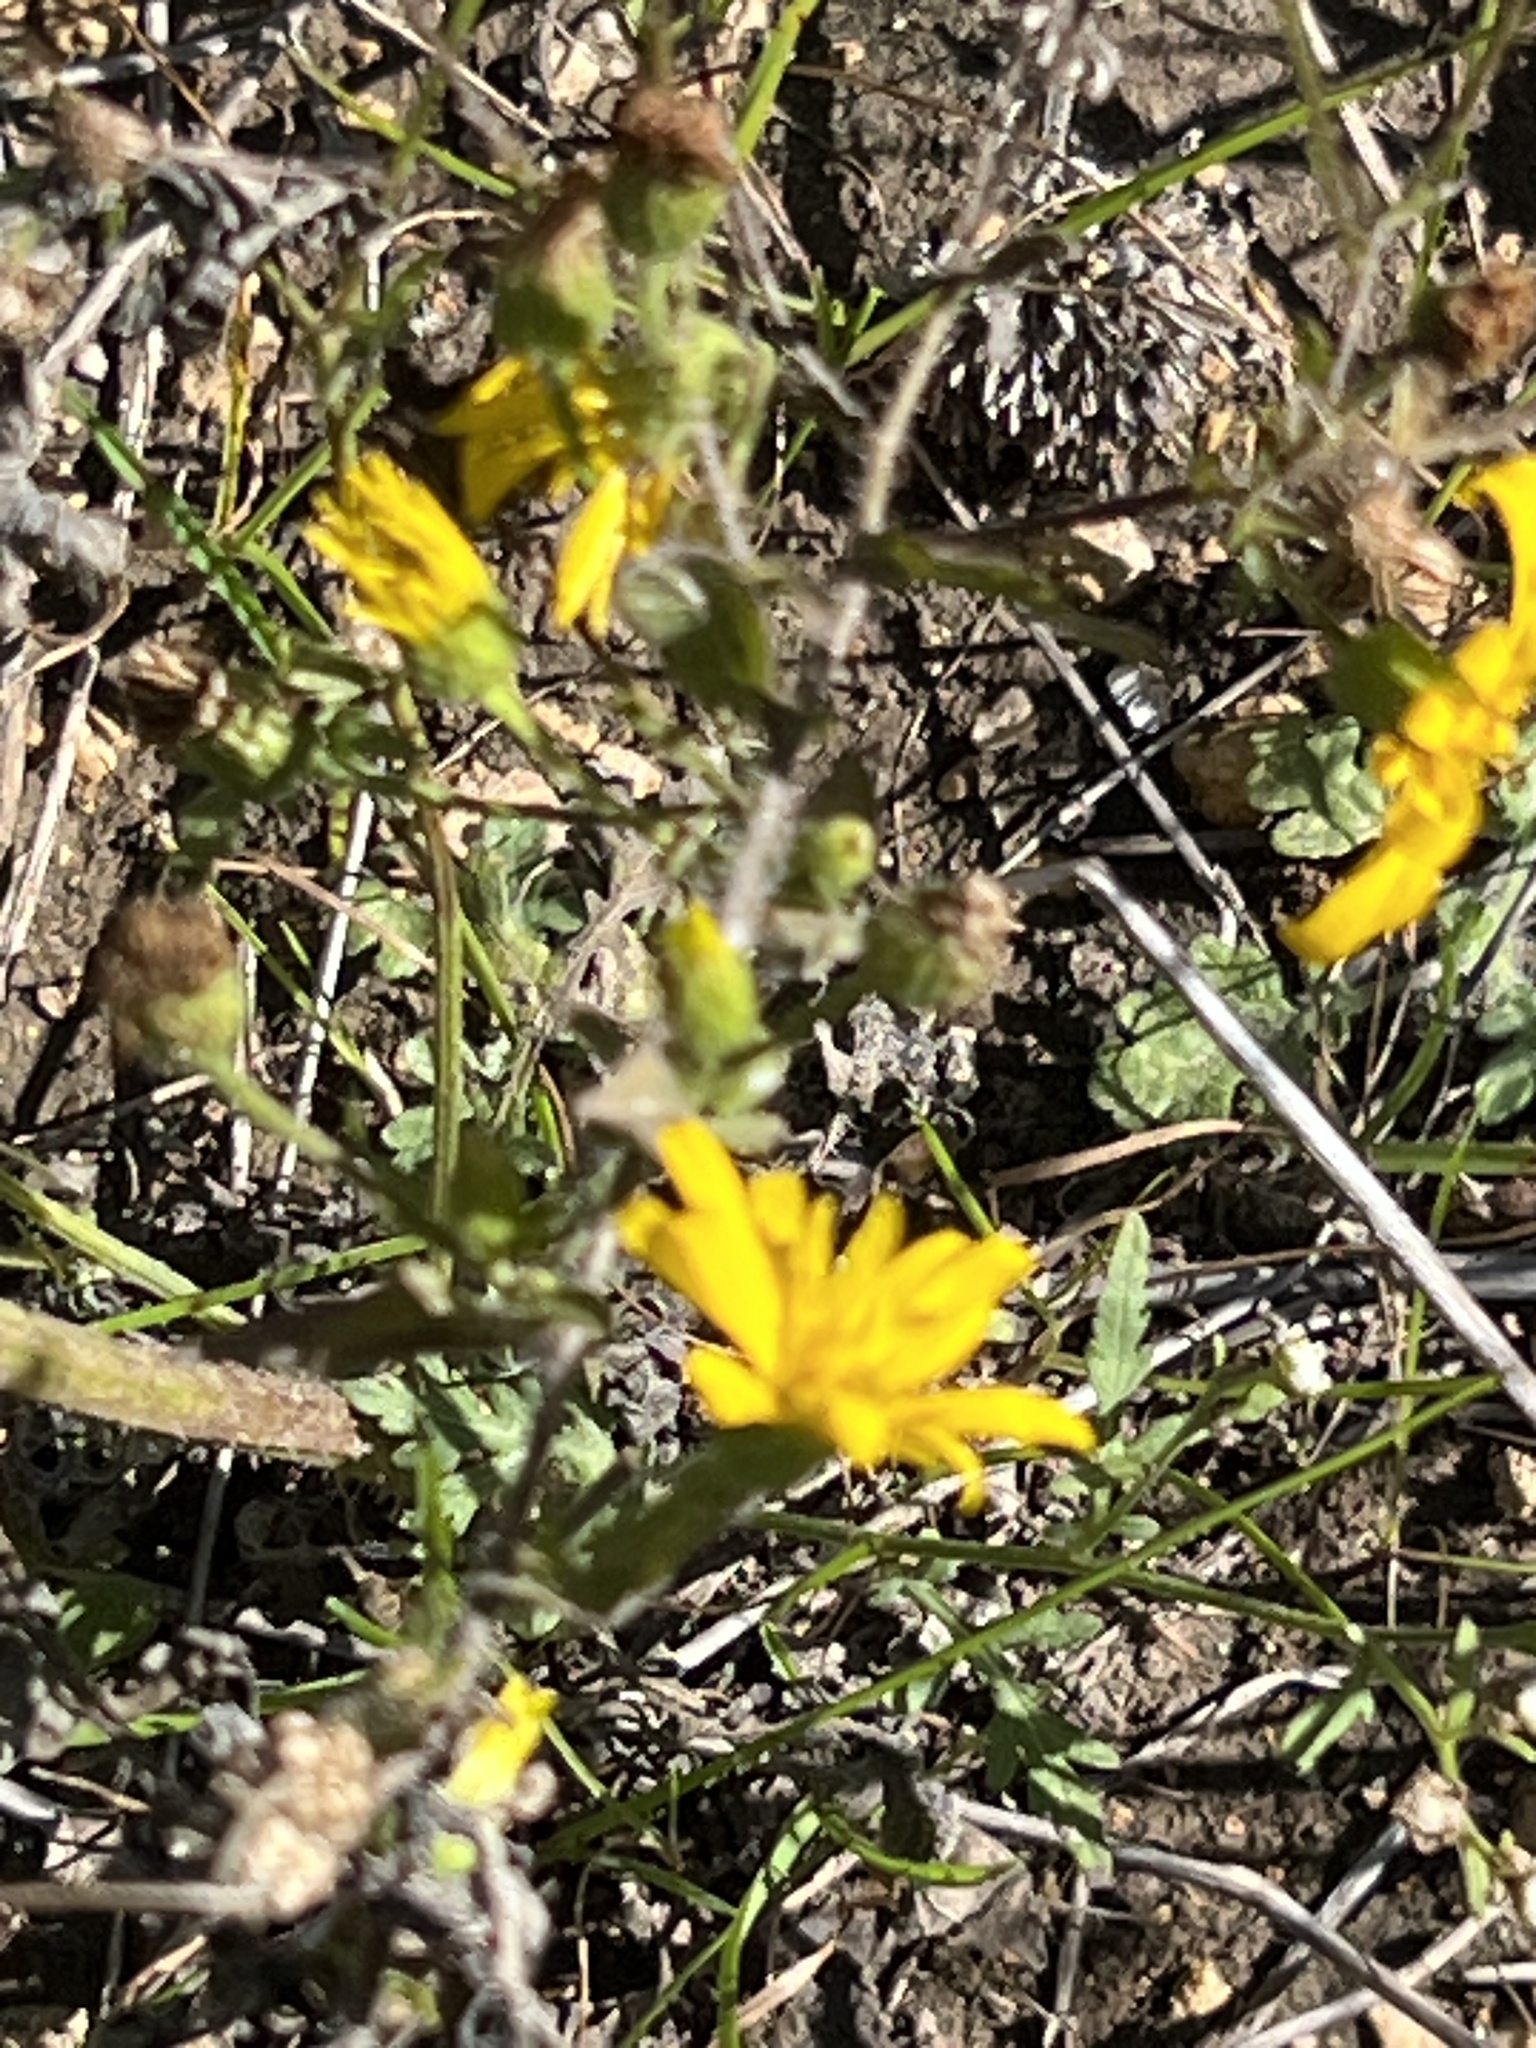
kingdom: Plantae
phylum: Tracheophyta
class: Magnoliopsida
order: Asterales
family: Asteraceae
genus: Heterotheca
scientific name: Heterotheca subaxillaris
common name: Camphorweed
